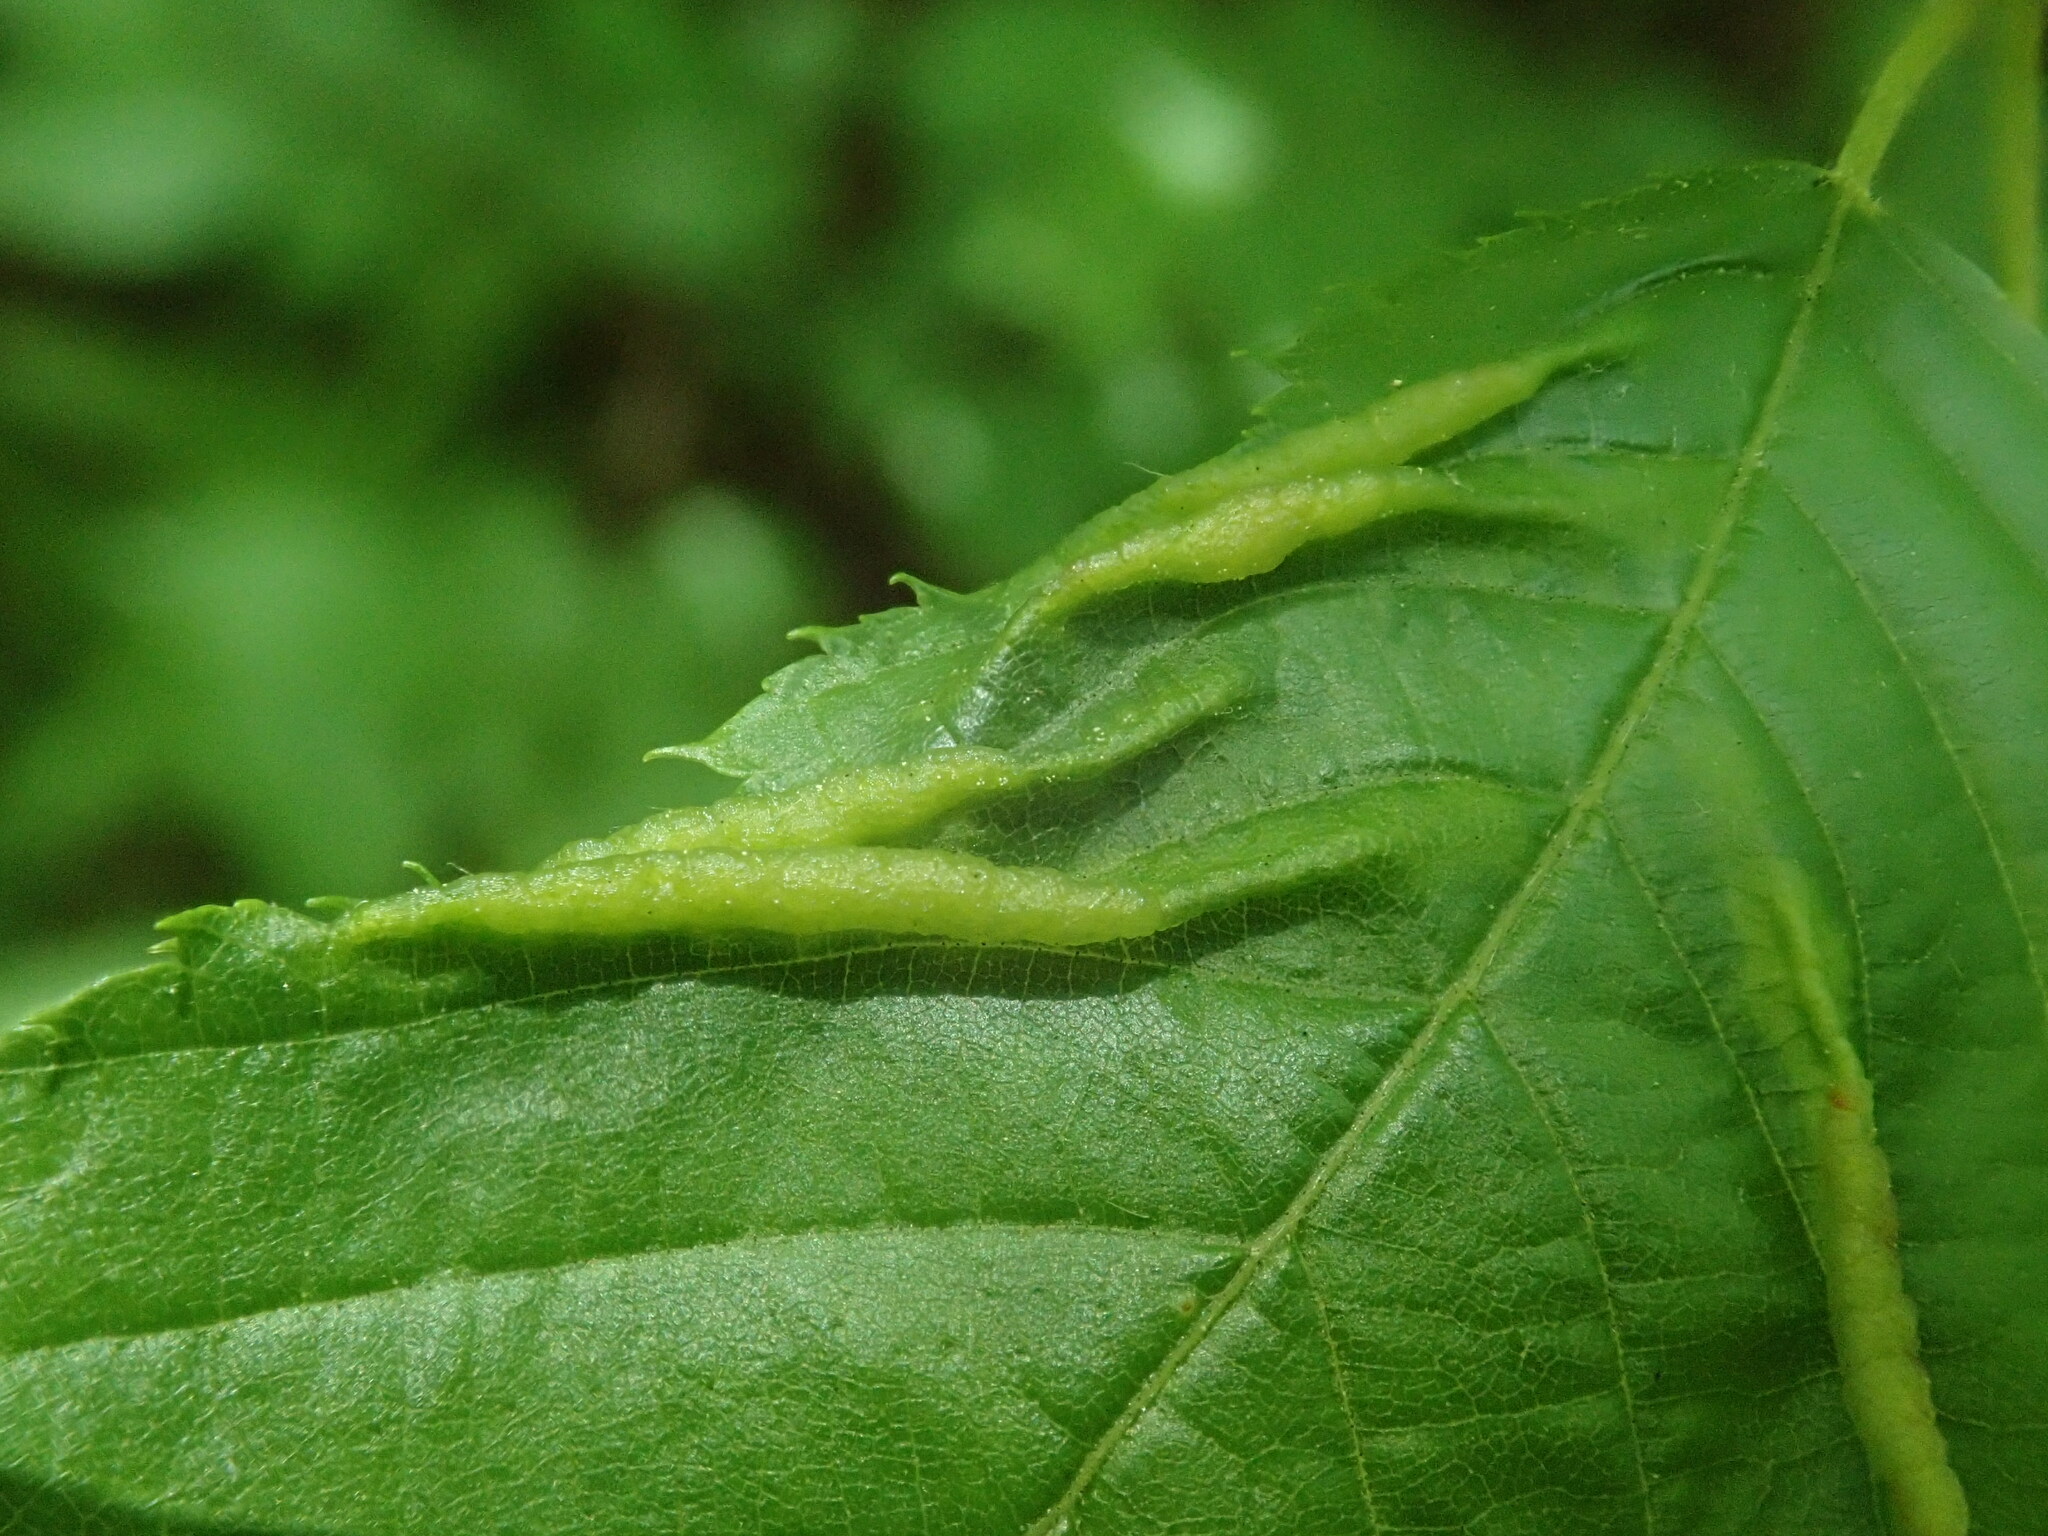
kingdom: Animalia
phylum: Arthropoda
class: Insecta
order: Diptera
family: Cecidomyiidae
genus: Dasineura
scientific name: Dasineura pudibunda
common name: Hornbeam leaf gall midge
